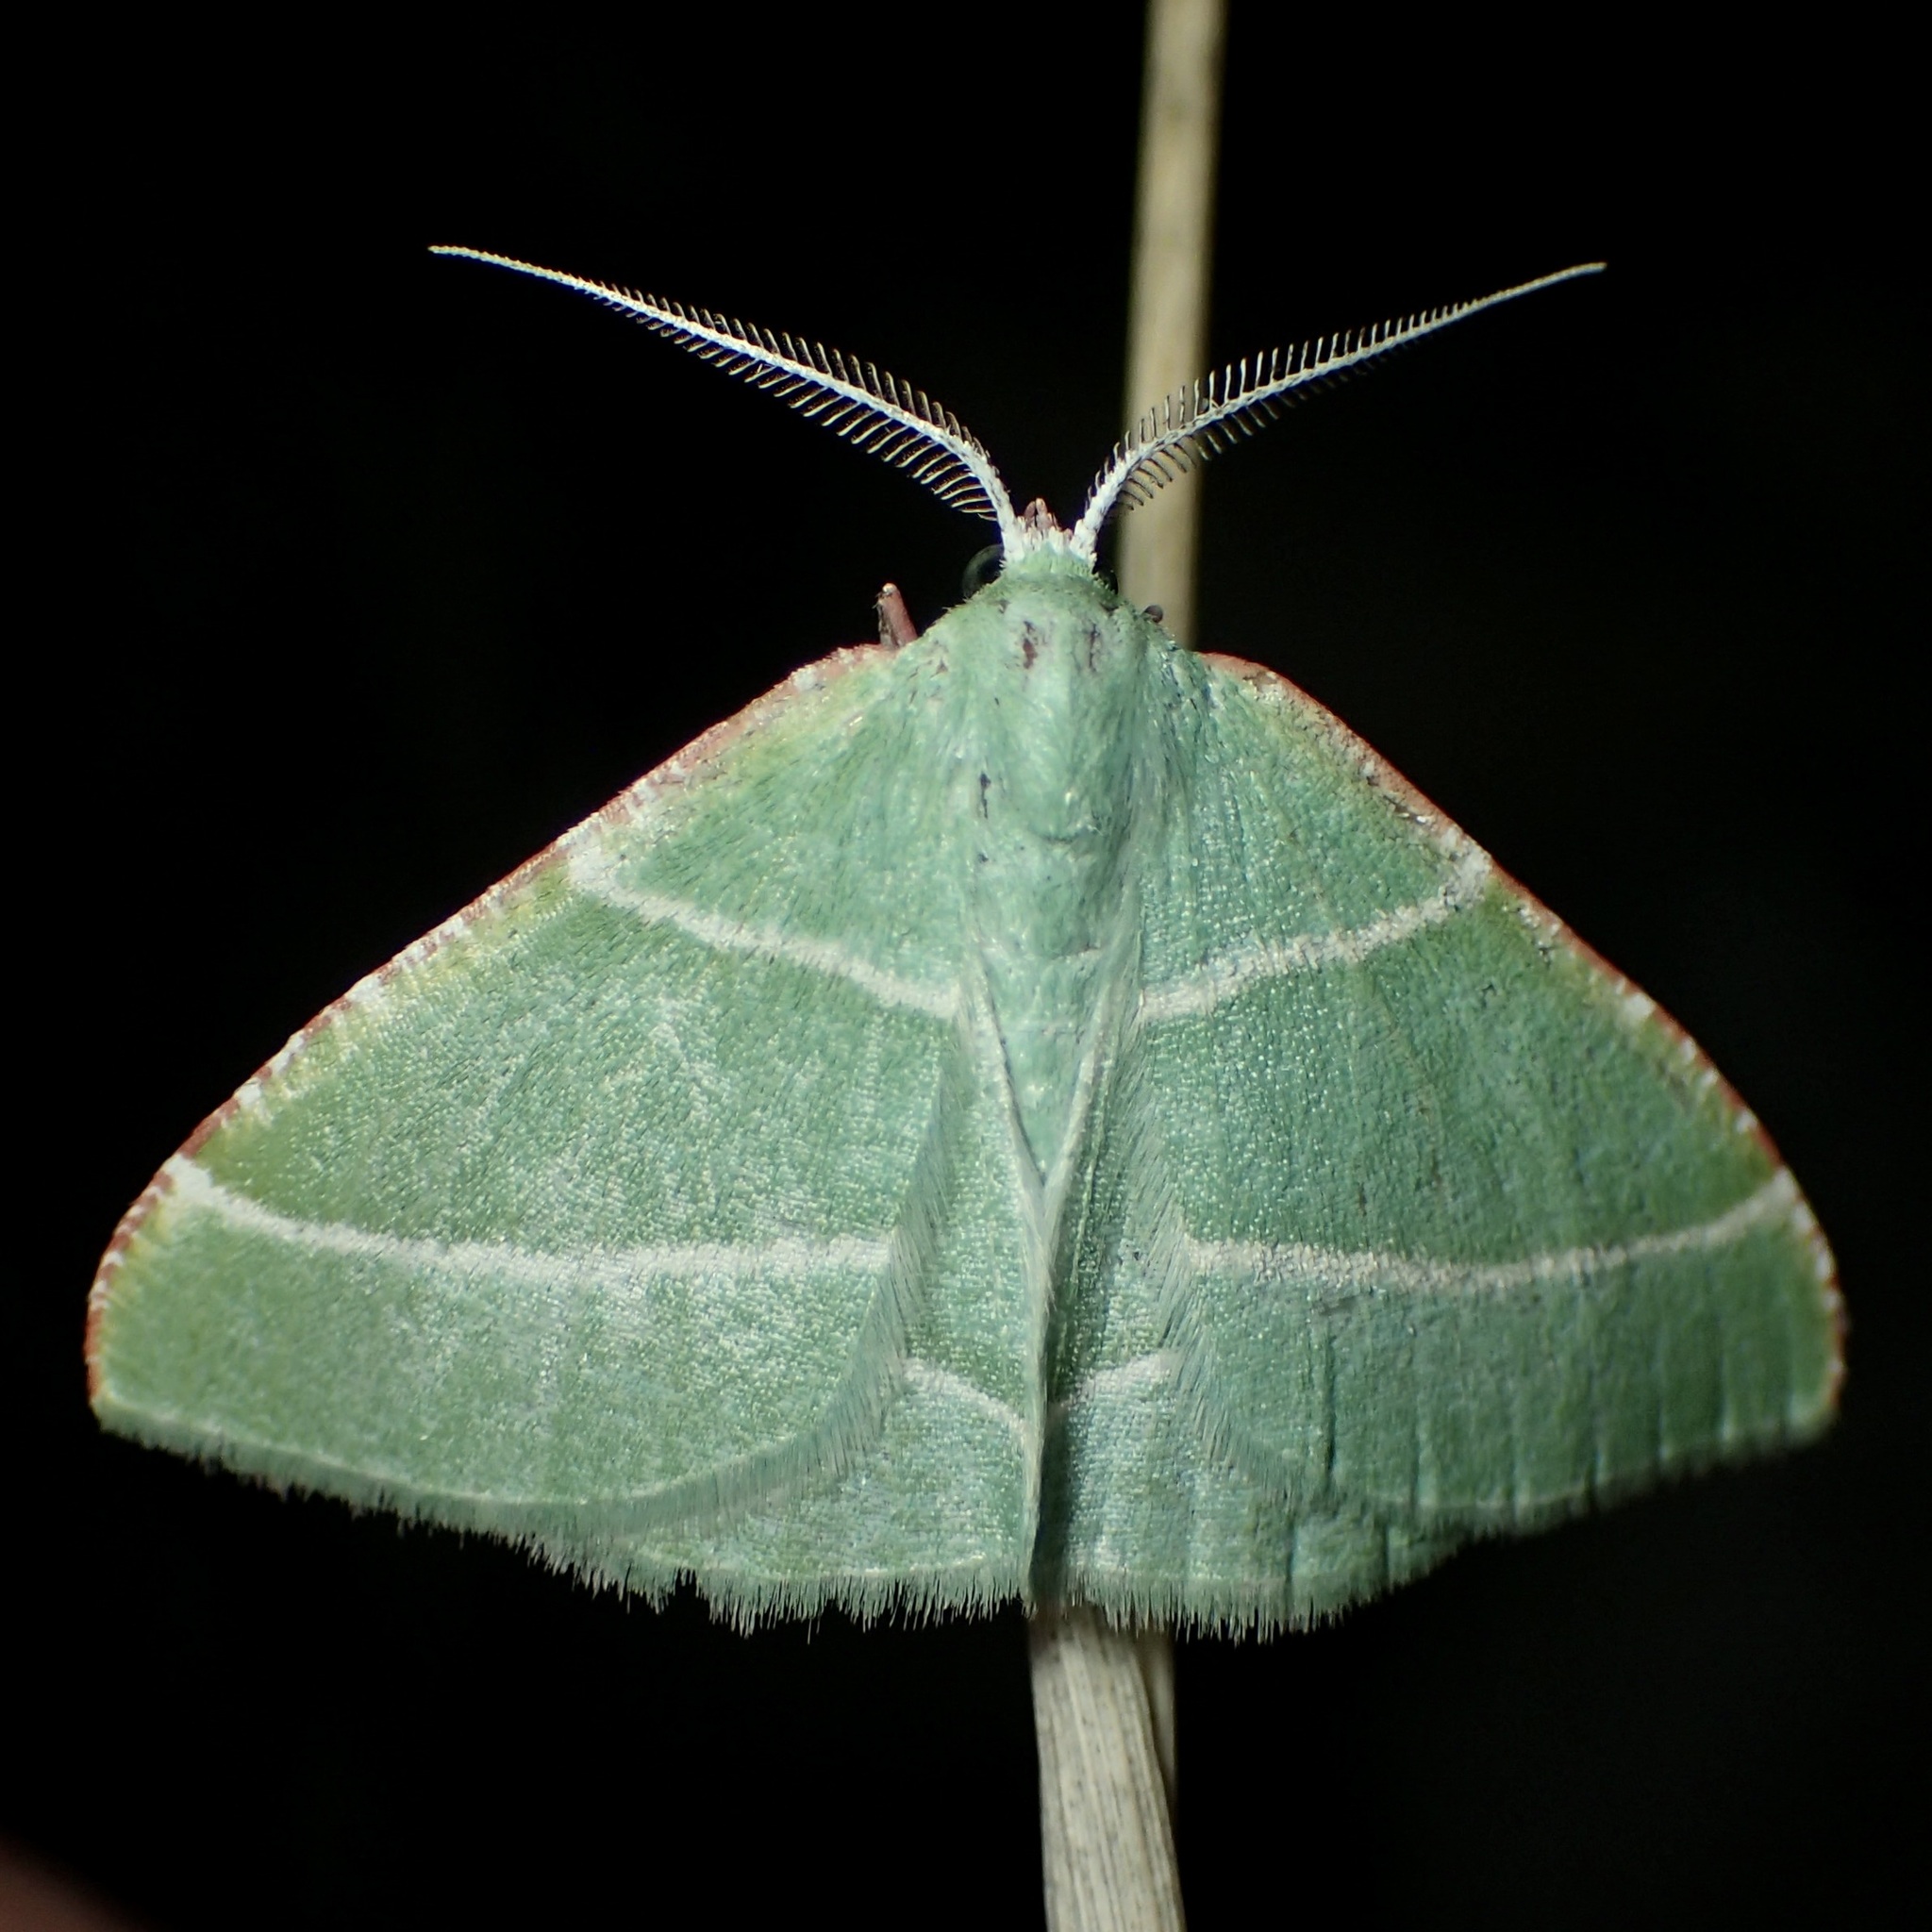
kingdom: Animalia
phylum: Arthropoda
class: Insecta
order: Lepidoptera
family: Geometridae
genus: Dichordophora
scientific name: Dichordophora phoenix
